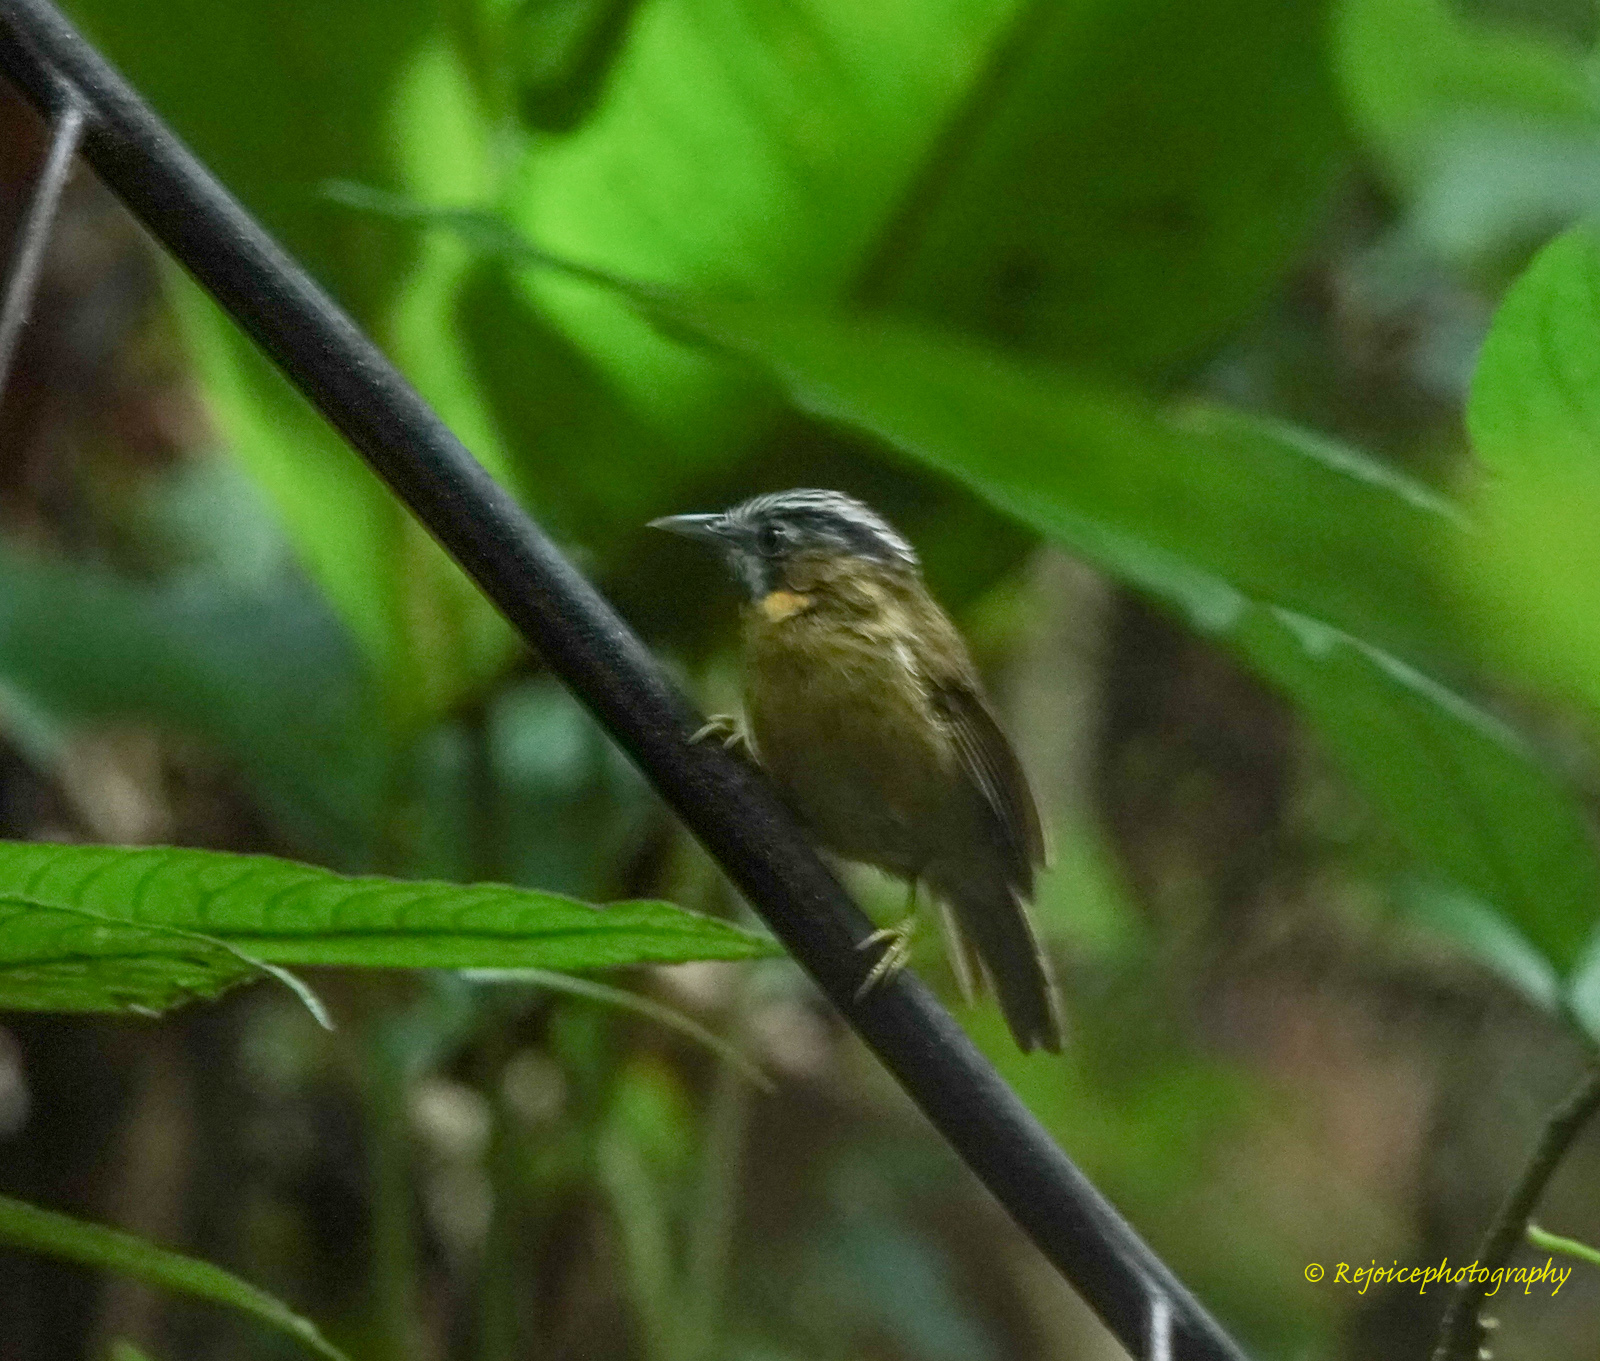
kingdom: Animalia
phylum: Chordata
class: Aves
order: Passeriformes
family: Timaliidae
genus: Stachyris
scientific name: Stachyris nigriceps
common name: Grey-throated babbler
